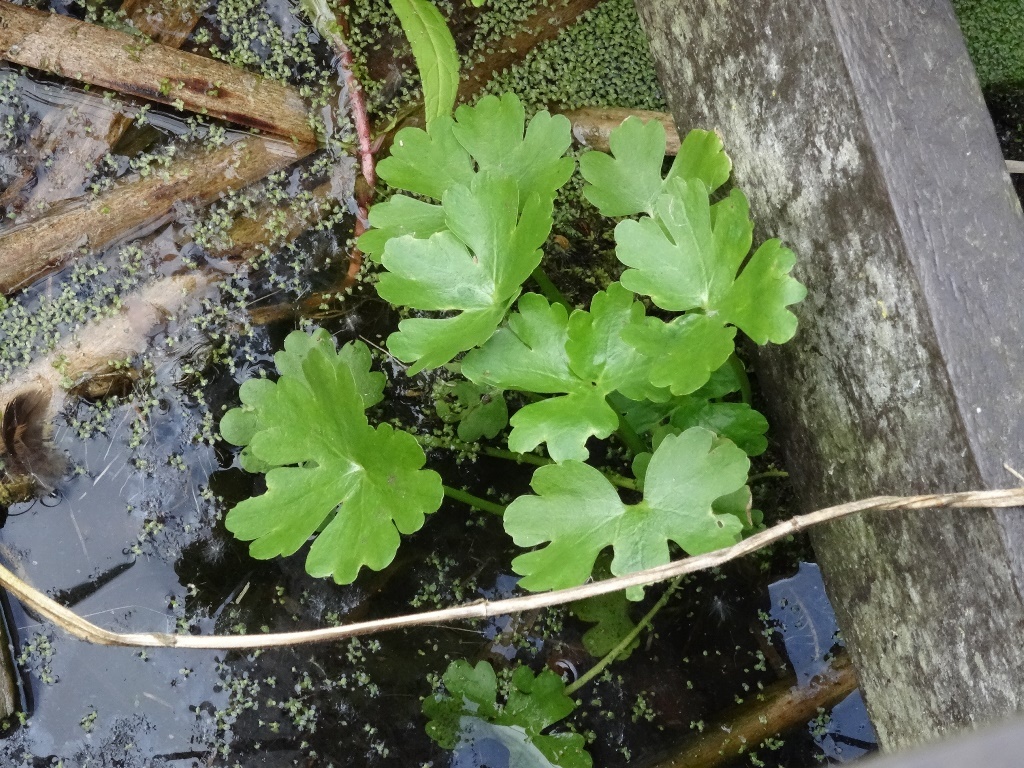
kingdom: Plantae
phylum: Tracheophyta
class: Magnoliopsida
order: Ranunculales
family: Ranunculaceae
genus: Ranunculus
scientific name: Ranunculus sceleratus
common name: Celery-leaved buttercup
